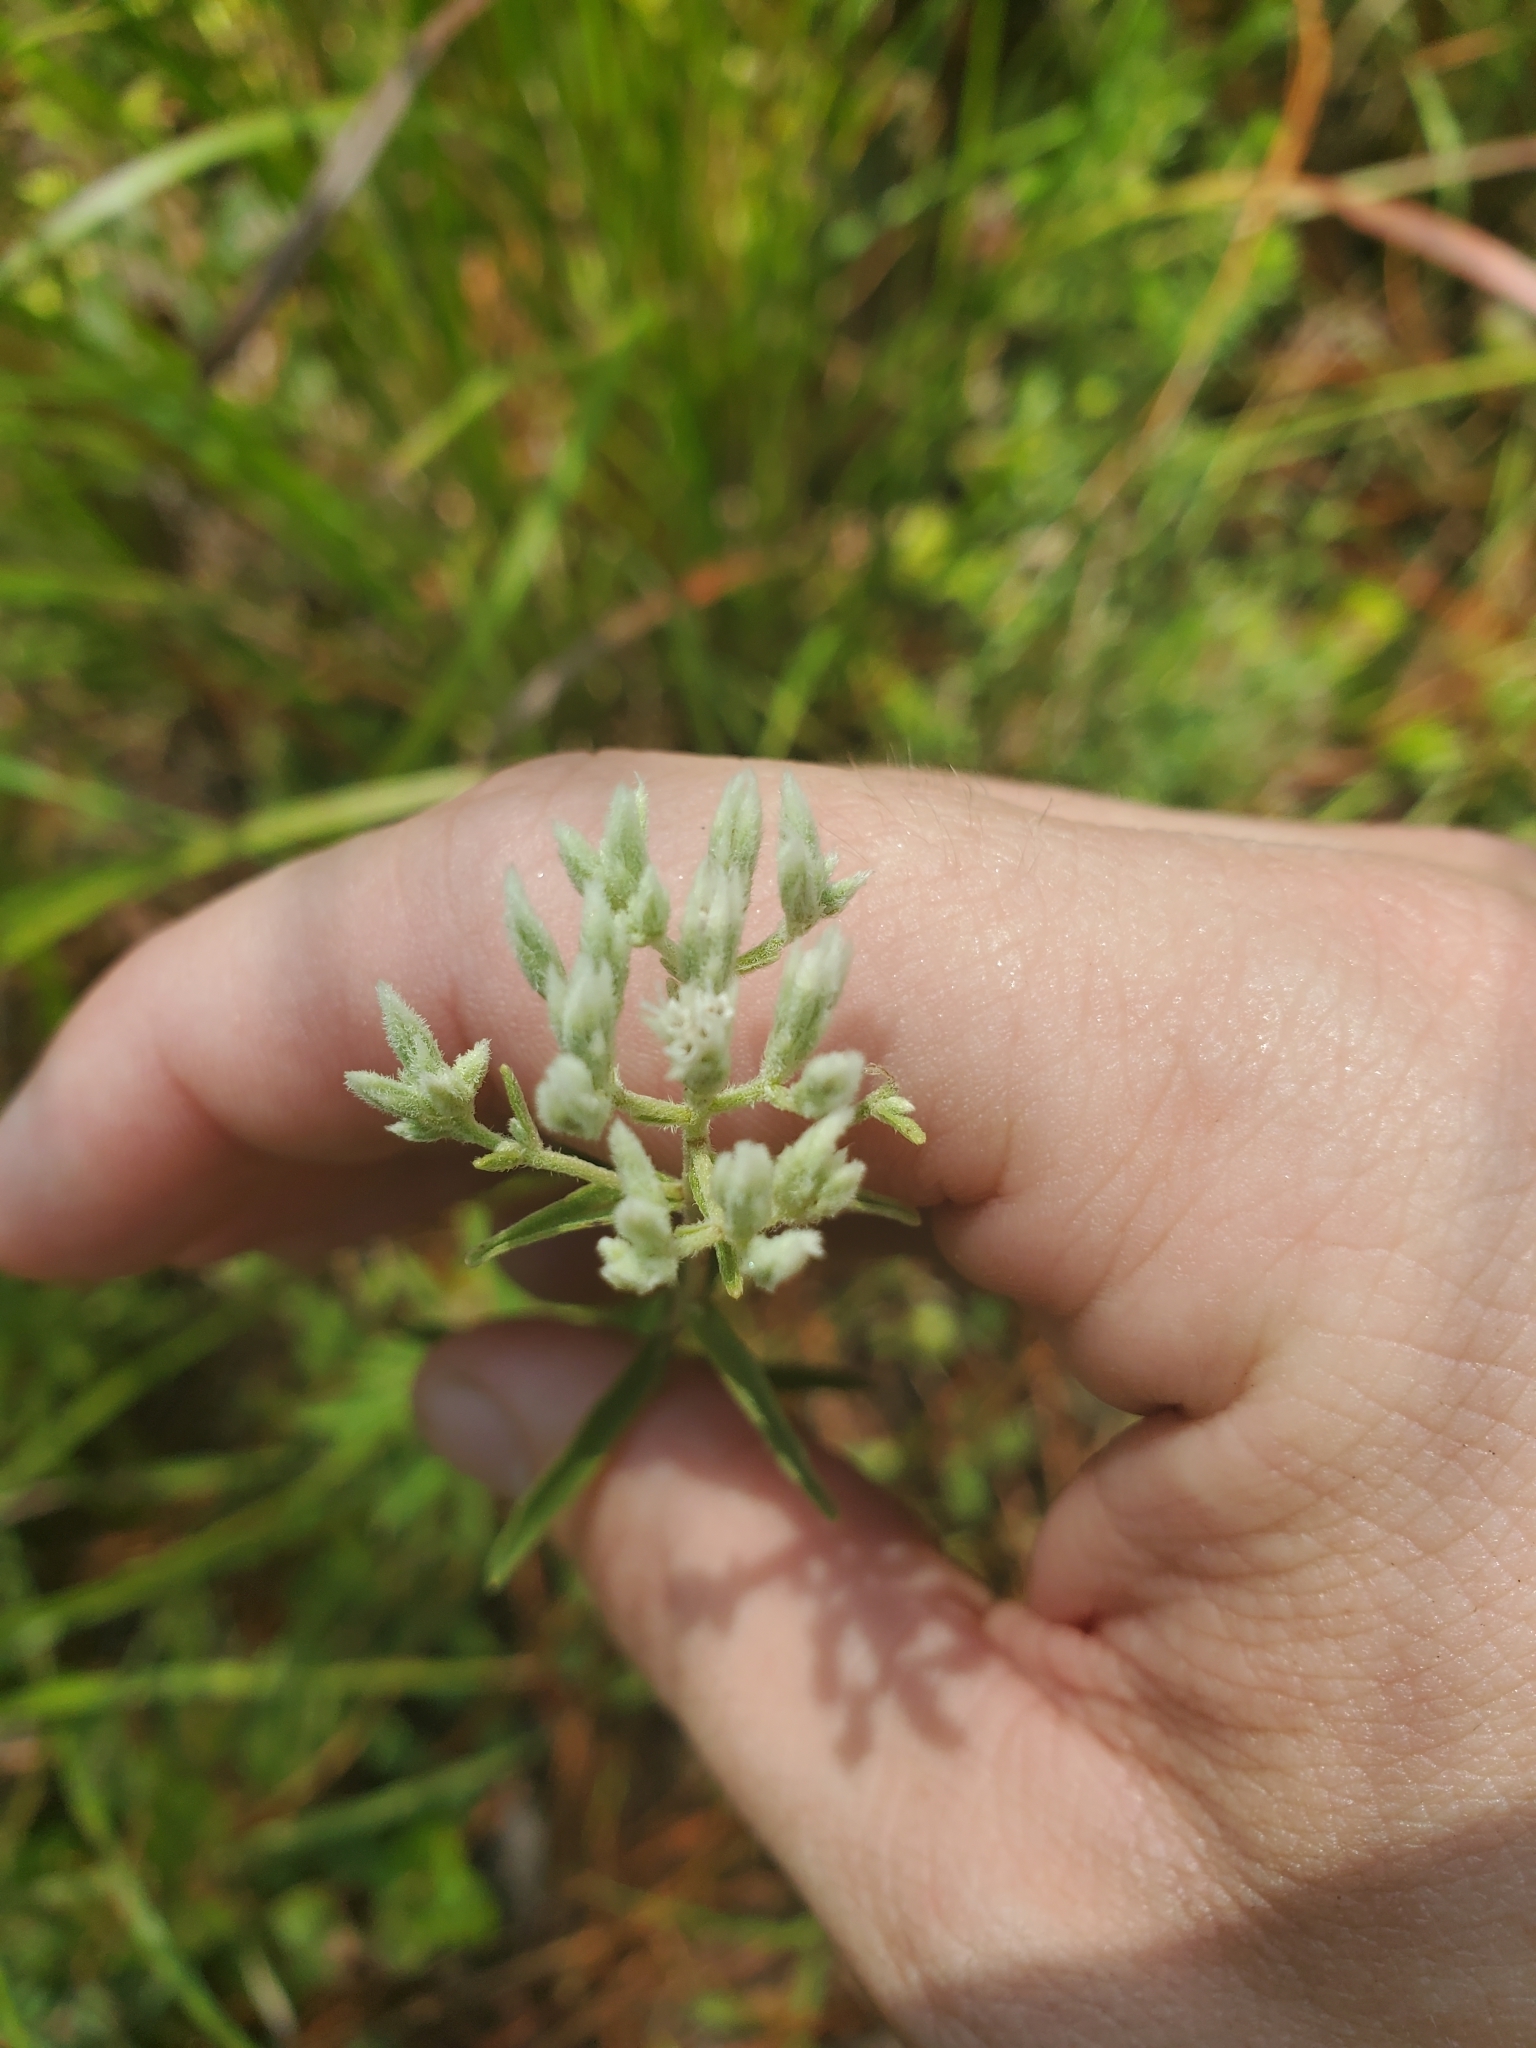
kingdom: Plantae
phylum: Tracheophyta
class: Magnoliopsida
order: Asterales
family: Asteraceae
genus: Eupatorium
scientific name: Eupatorium leucolepis
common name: Justiceweed
